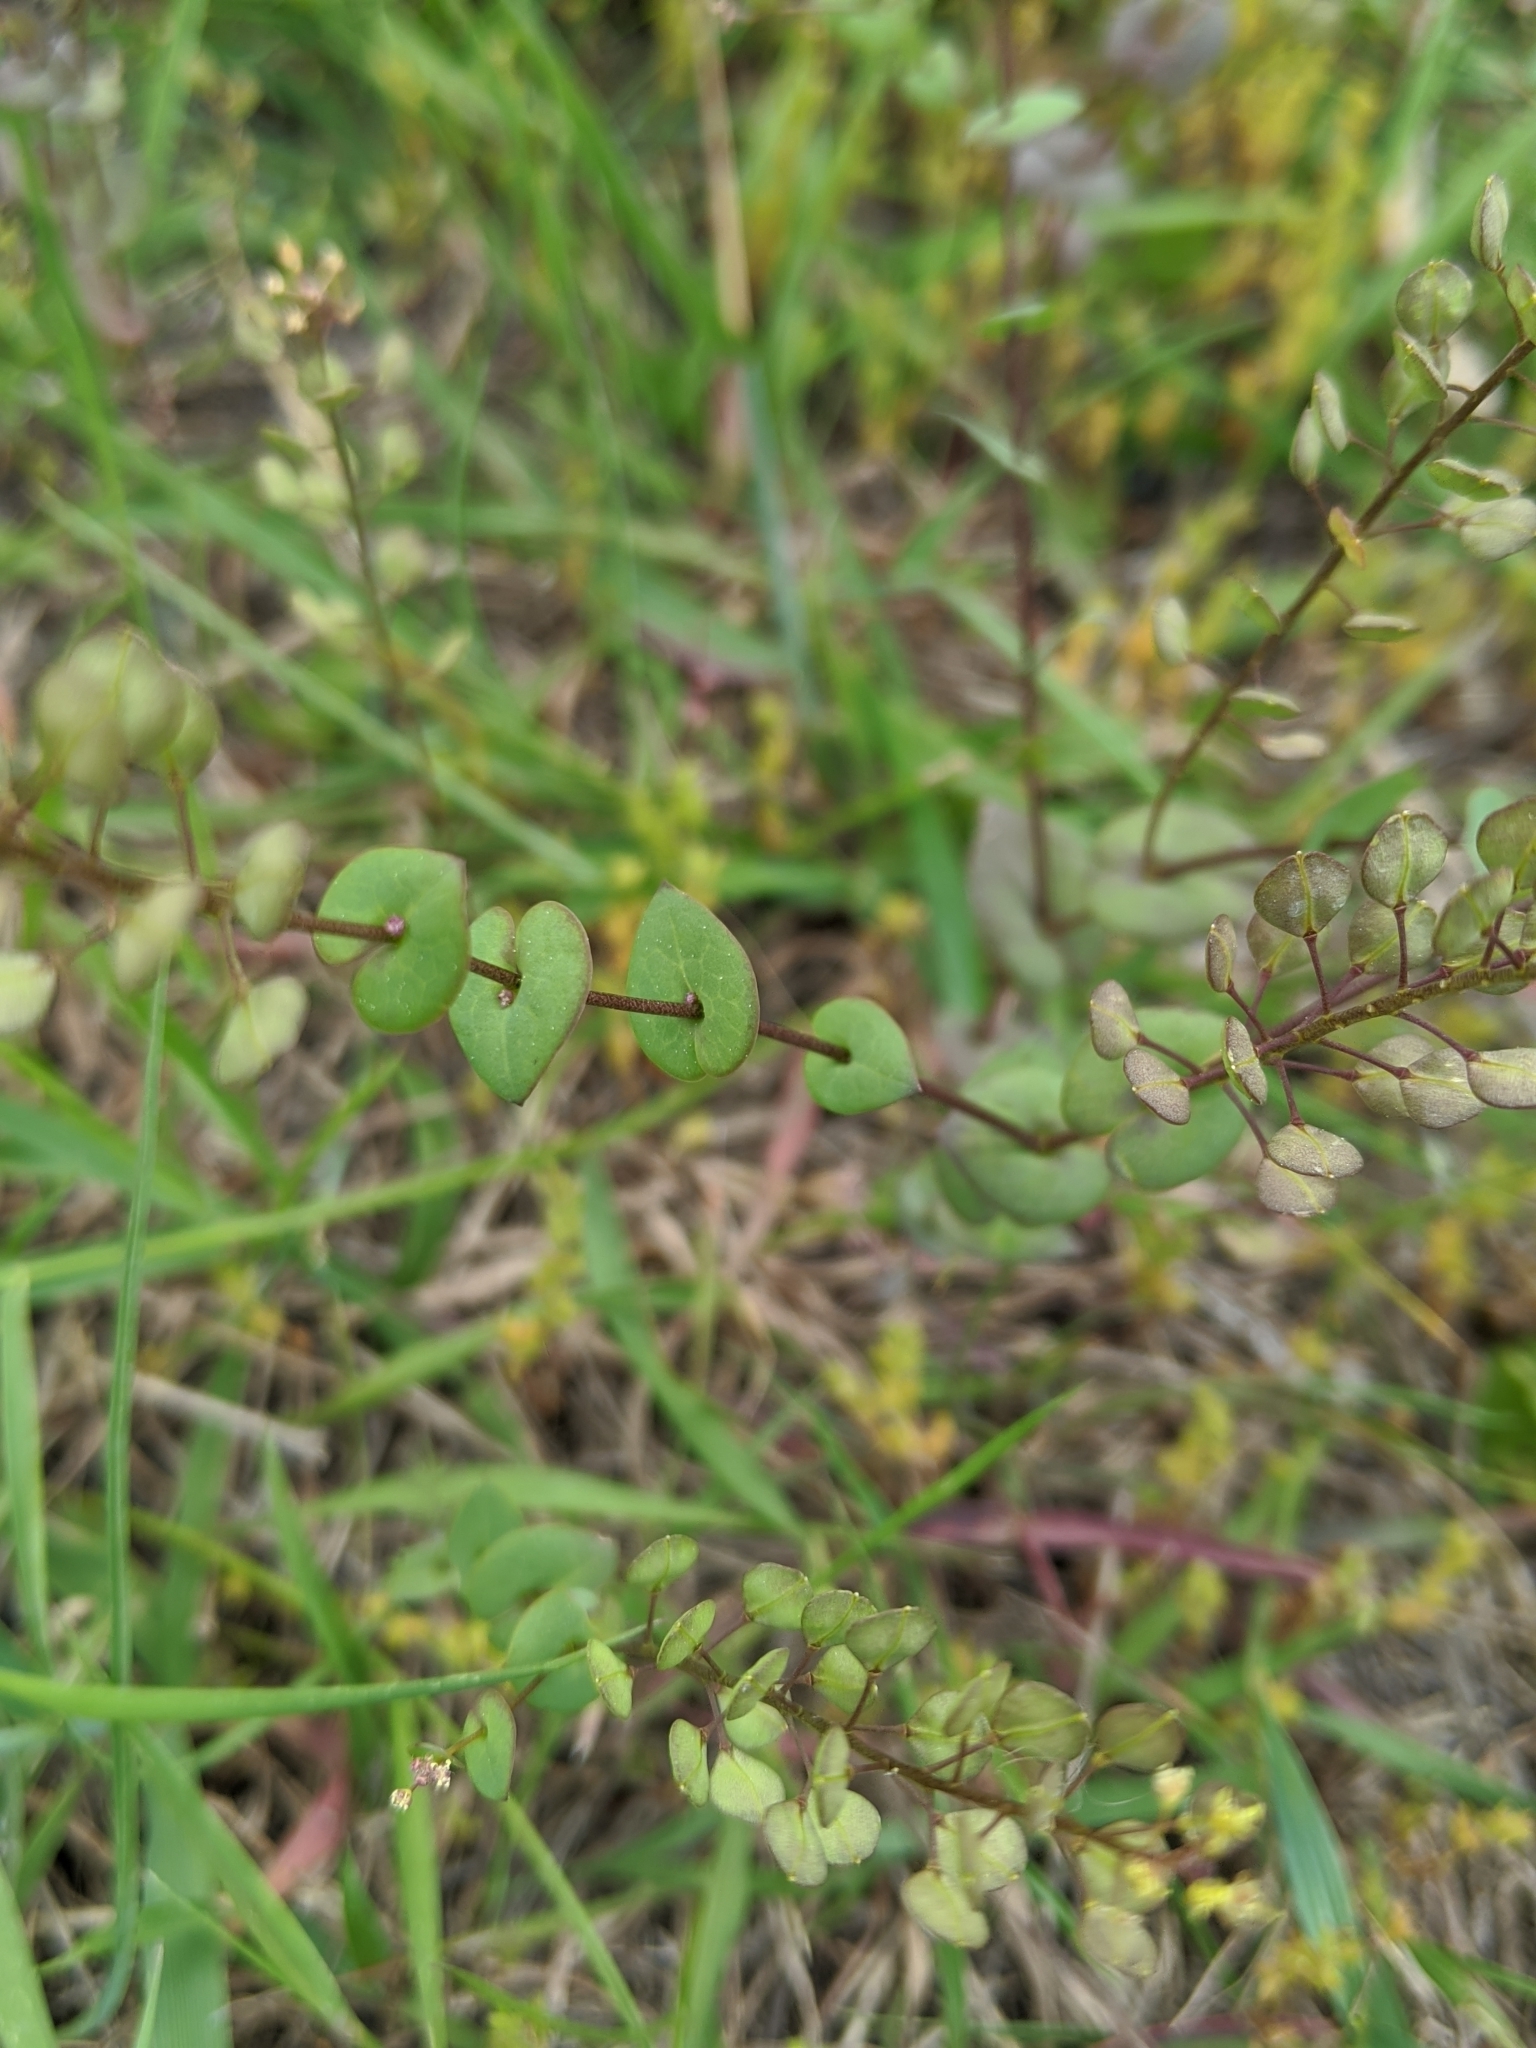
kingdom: Plantae
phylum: Tracheophyta
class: Magnoliopsida
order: Brassicales
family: Brassicaceae
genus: Lepidium
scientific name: Lepidium perfoliatum
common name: Perfoliate pepperwort
